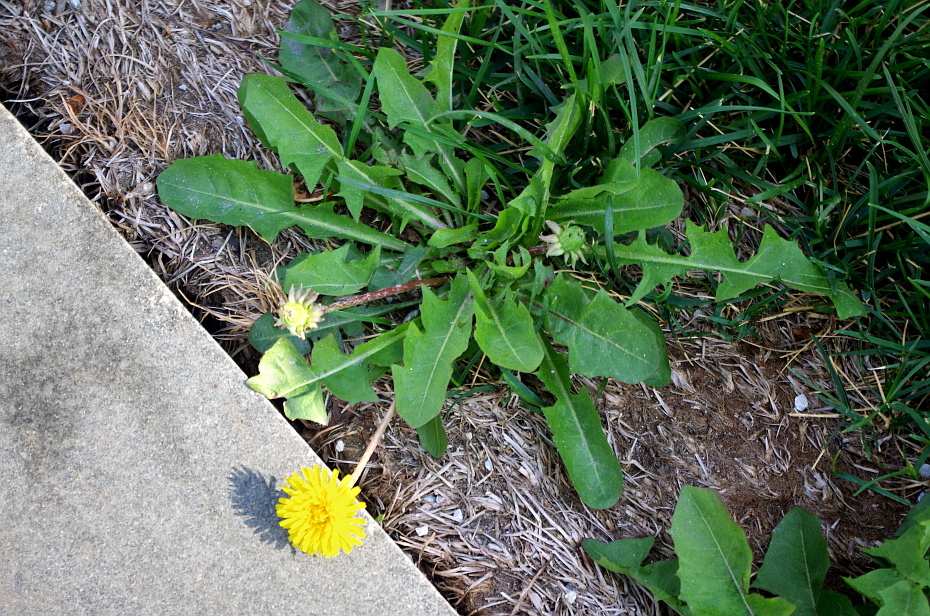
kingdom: Plantae
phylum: Tracheophyta
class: Magnoliopsida
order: Asterales
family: Asteraceae
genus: Taraxacum
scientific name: Taraxacum officinale
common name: Common dandelion
